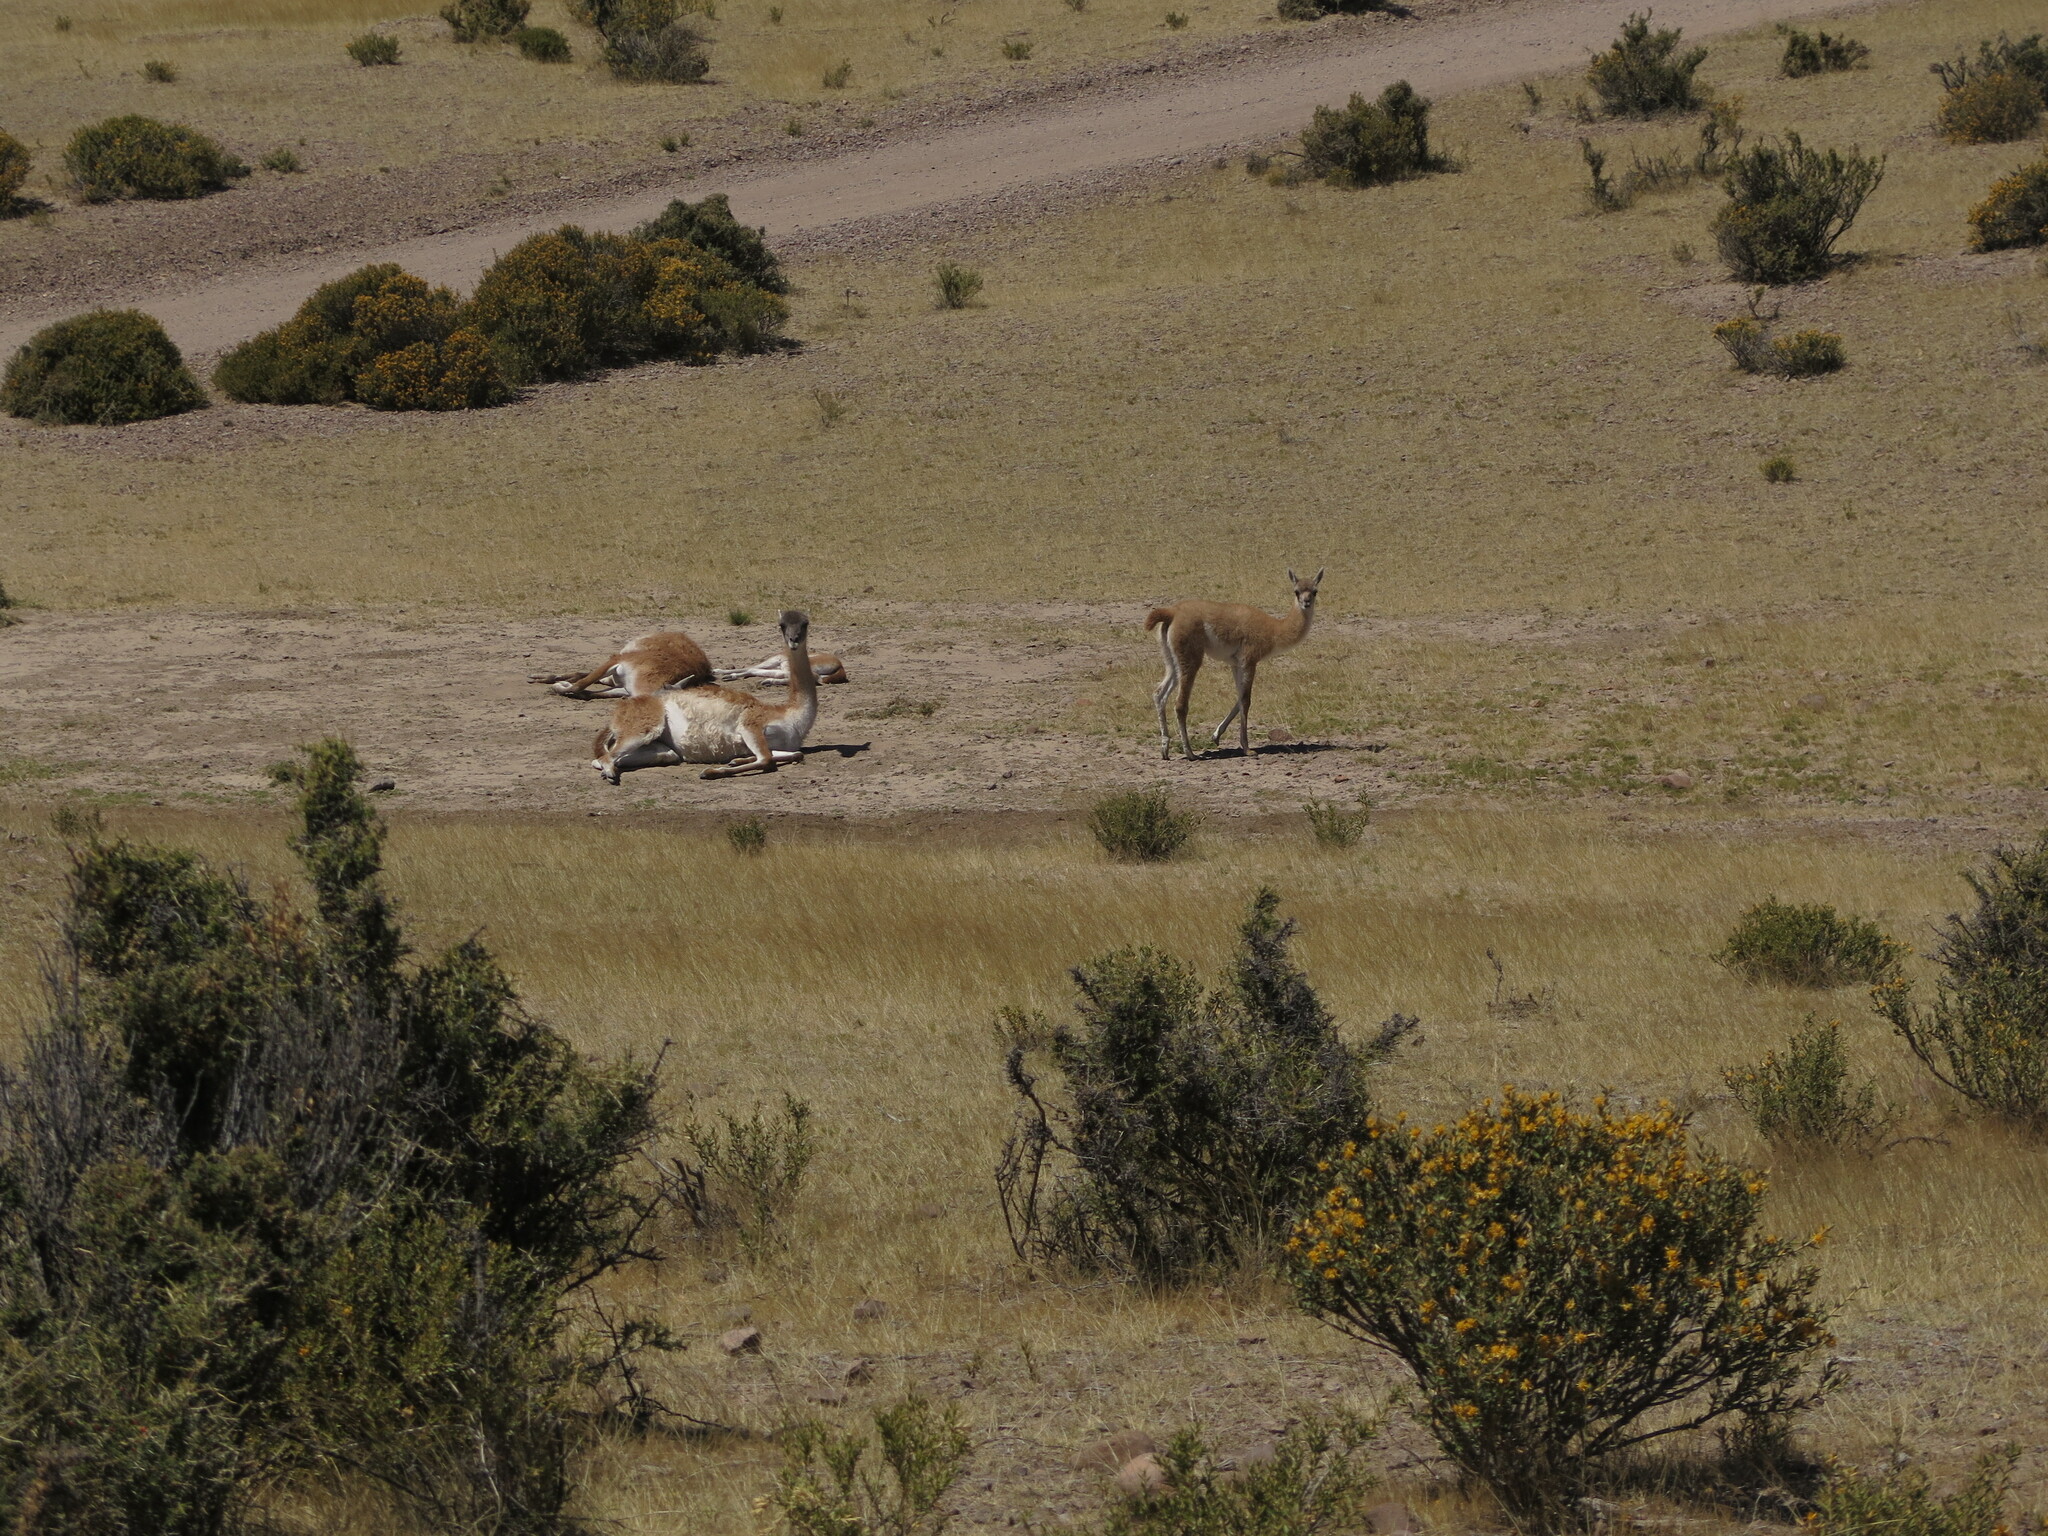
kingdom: Animalia
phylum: Chordata
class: Mammalia
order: Artiodactyla
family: Camelidae
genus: Lama
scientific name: Lama glama
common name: Llama
